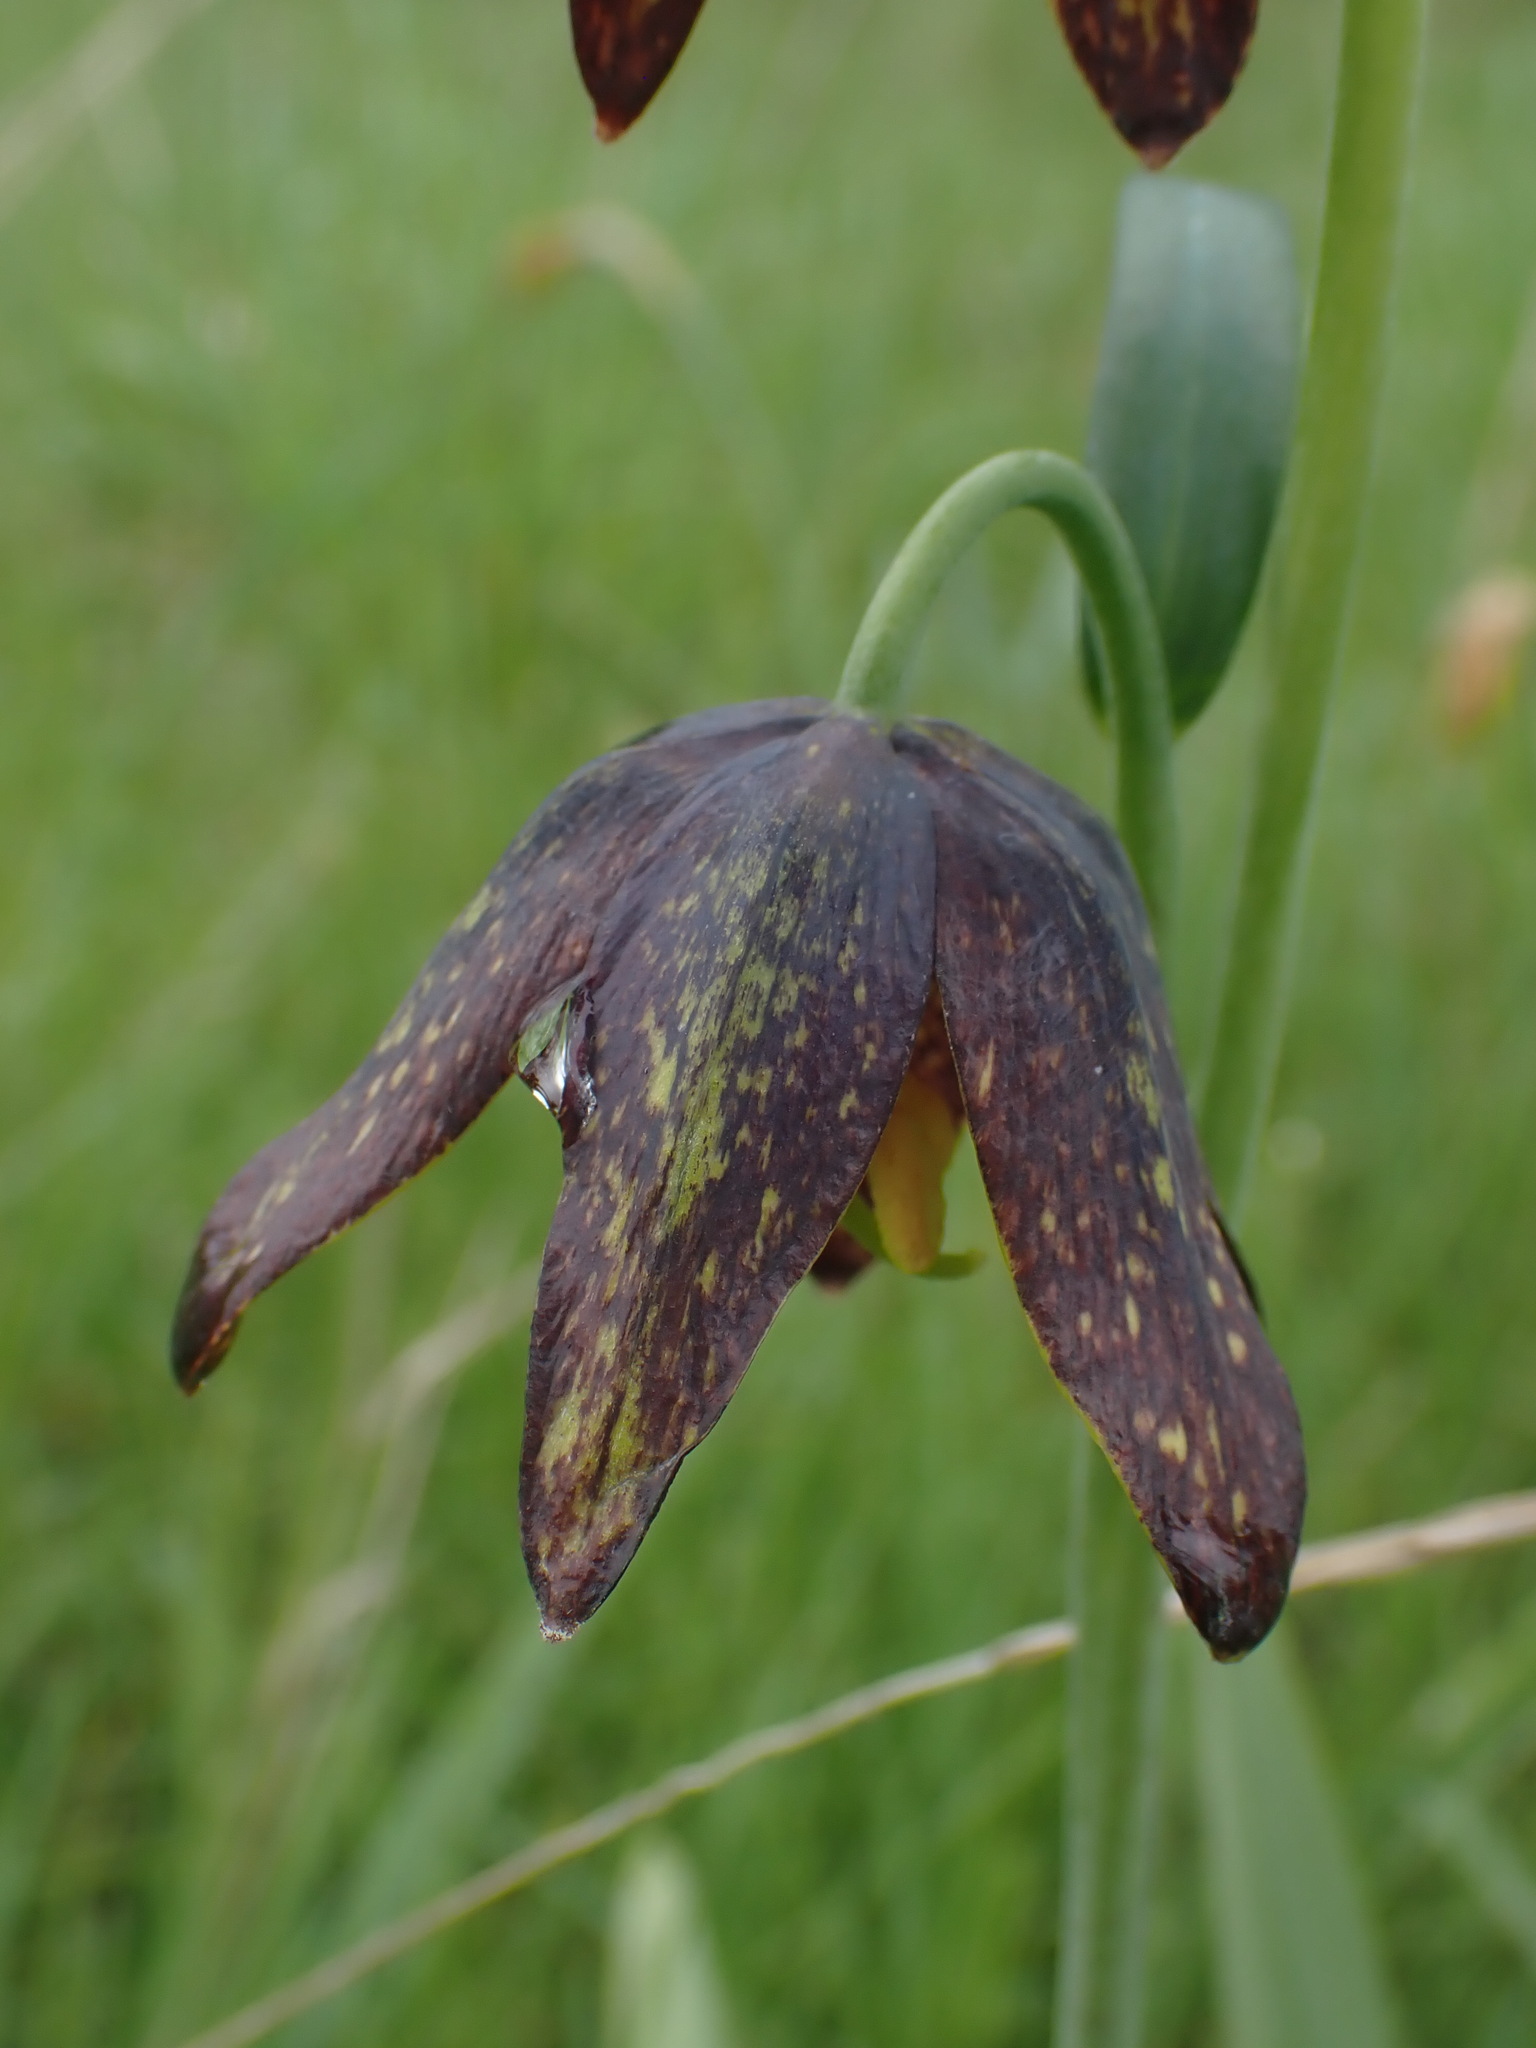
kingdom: Plantae
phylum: Tracheophyta
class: Liliopsida
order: Liliales
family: Liliaceae
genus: Fritillaria
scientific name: Fritillaria affinis
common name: Ojai fritillary
